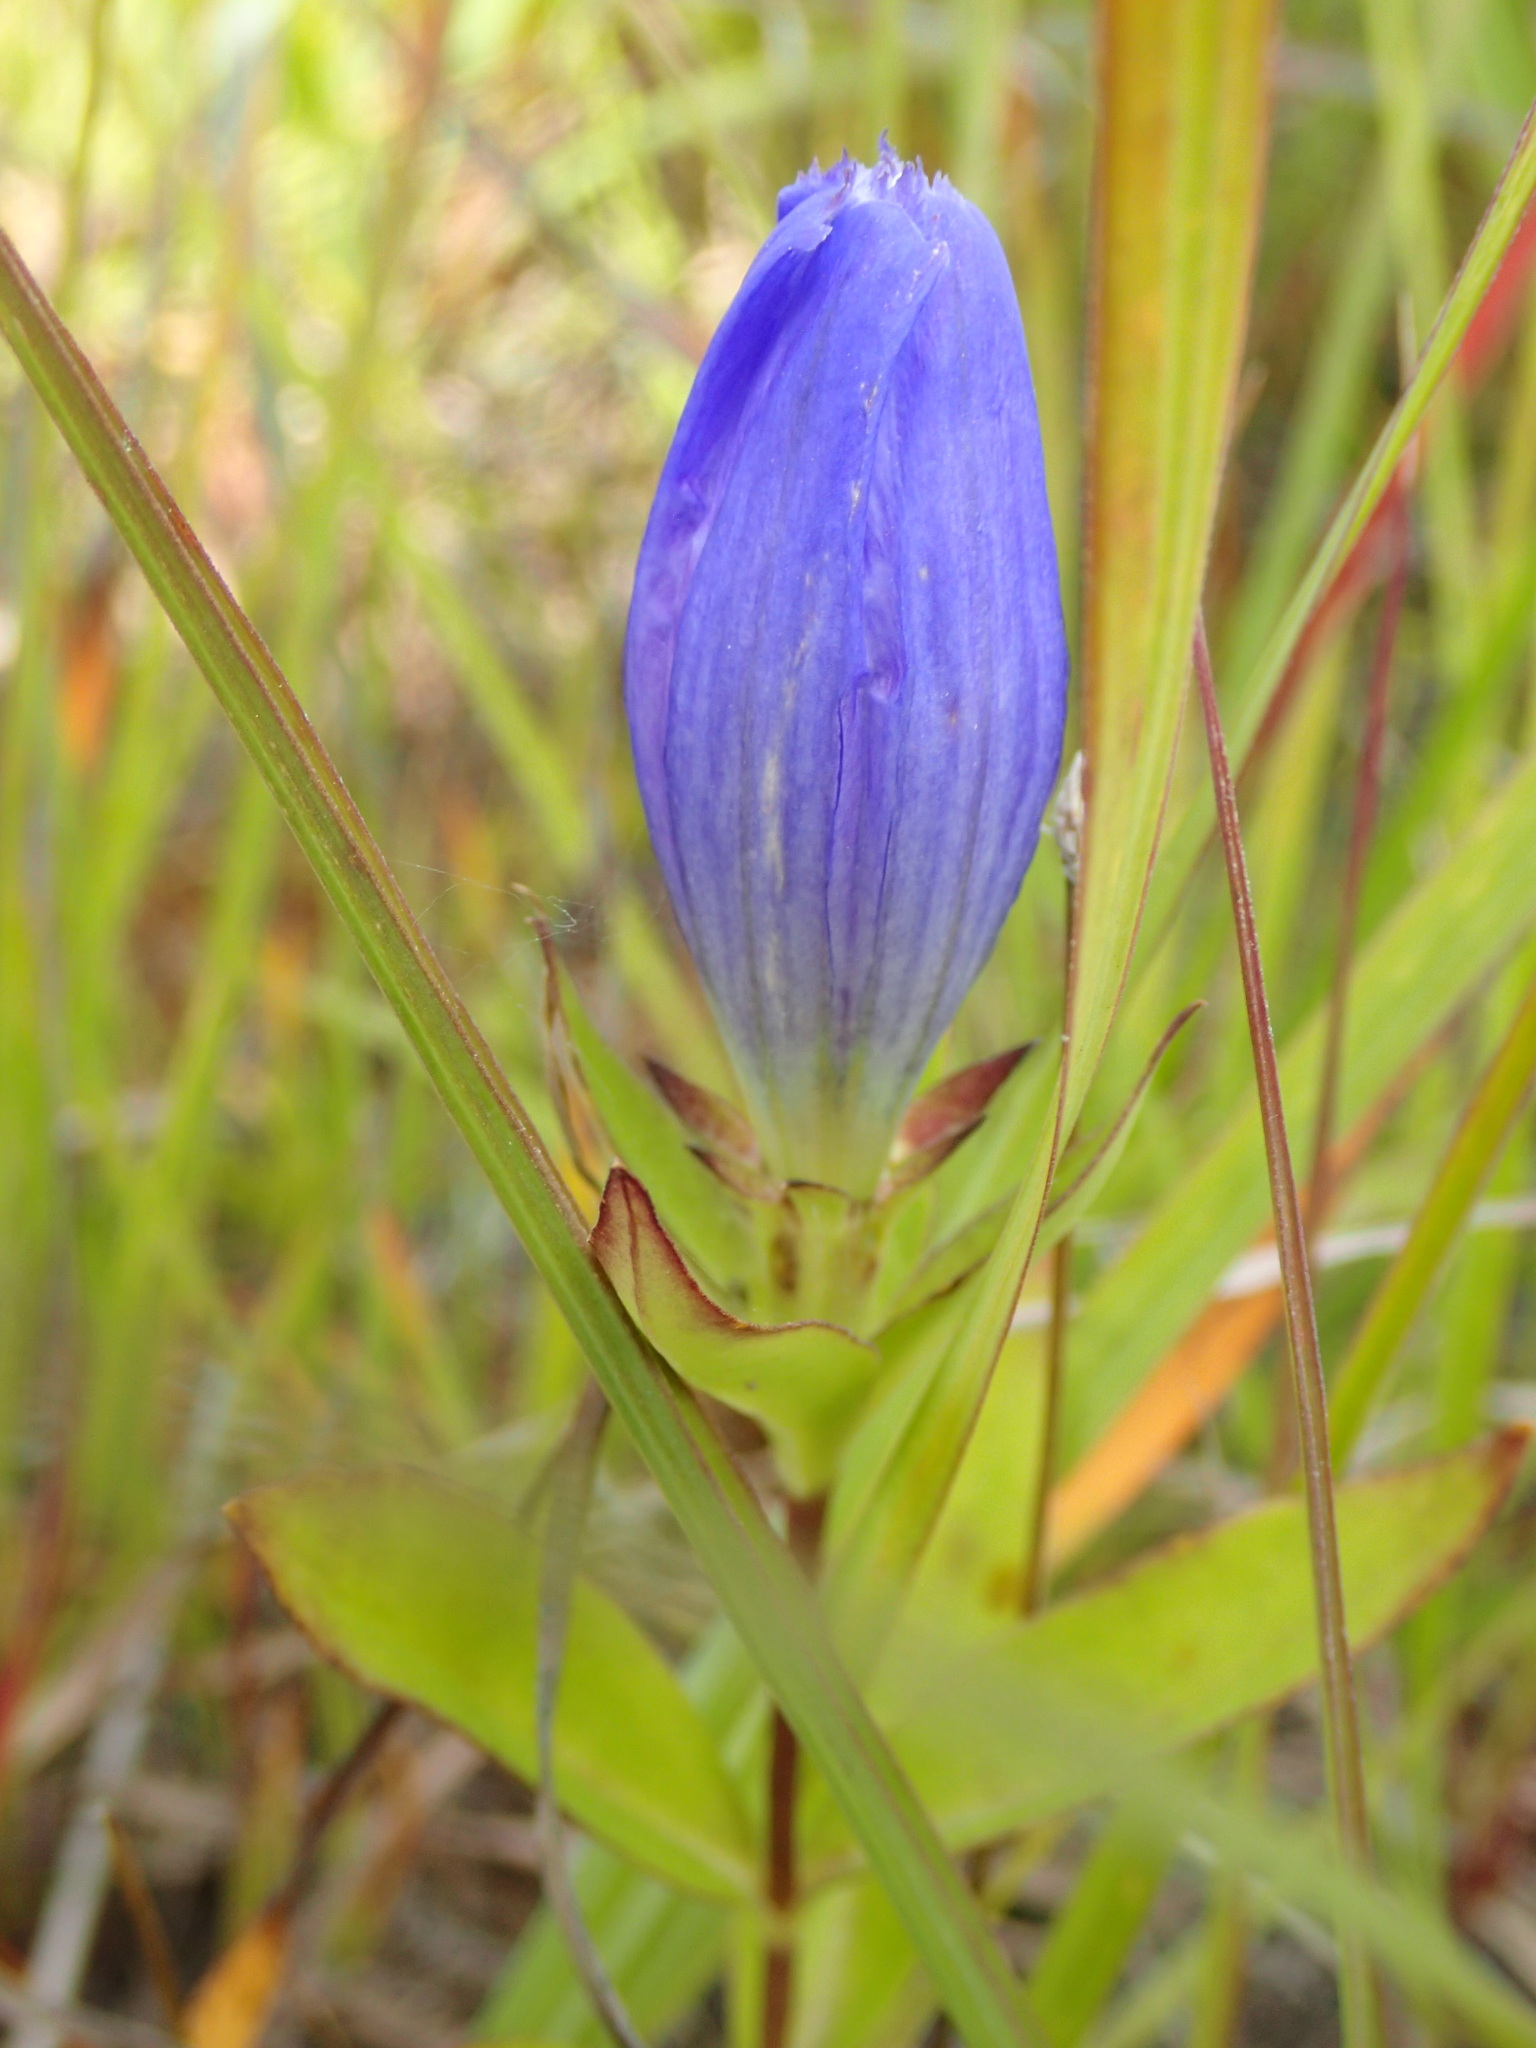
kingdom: Plantae
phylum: Tracheophyta
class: Magnoliopsida
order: Gentianales
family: Gentianaceae
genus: Gentiana
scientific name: Gentiana andrewsii
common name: Bottle gentian
